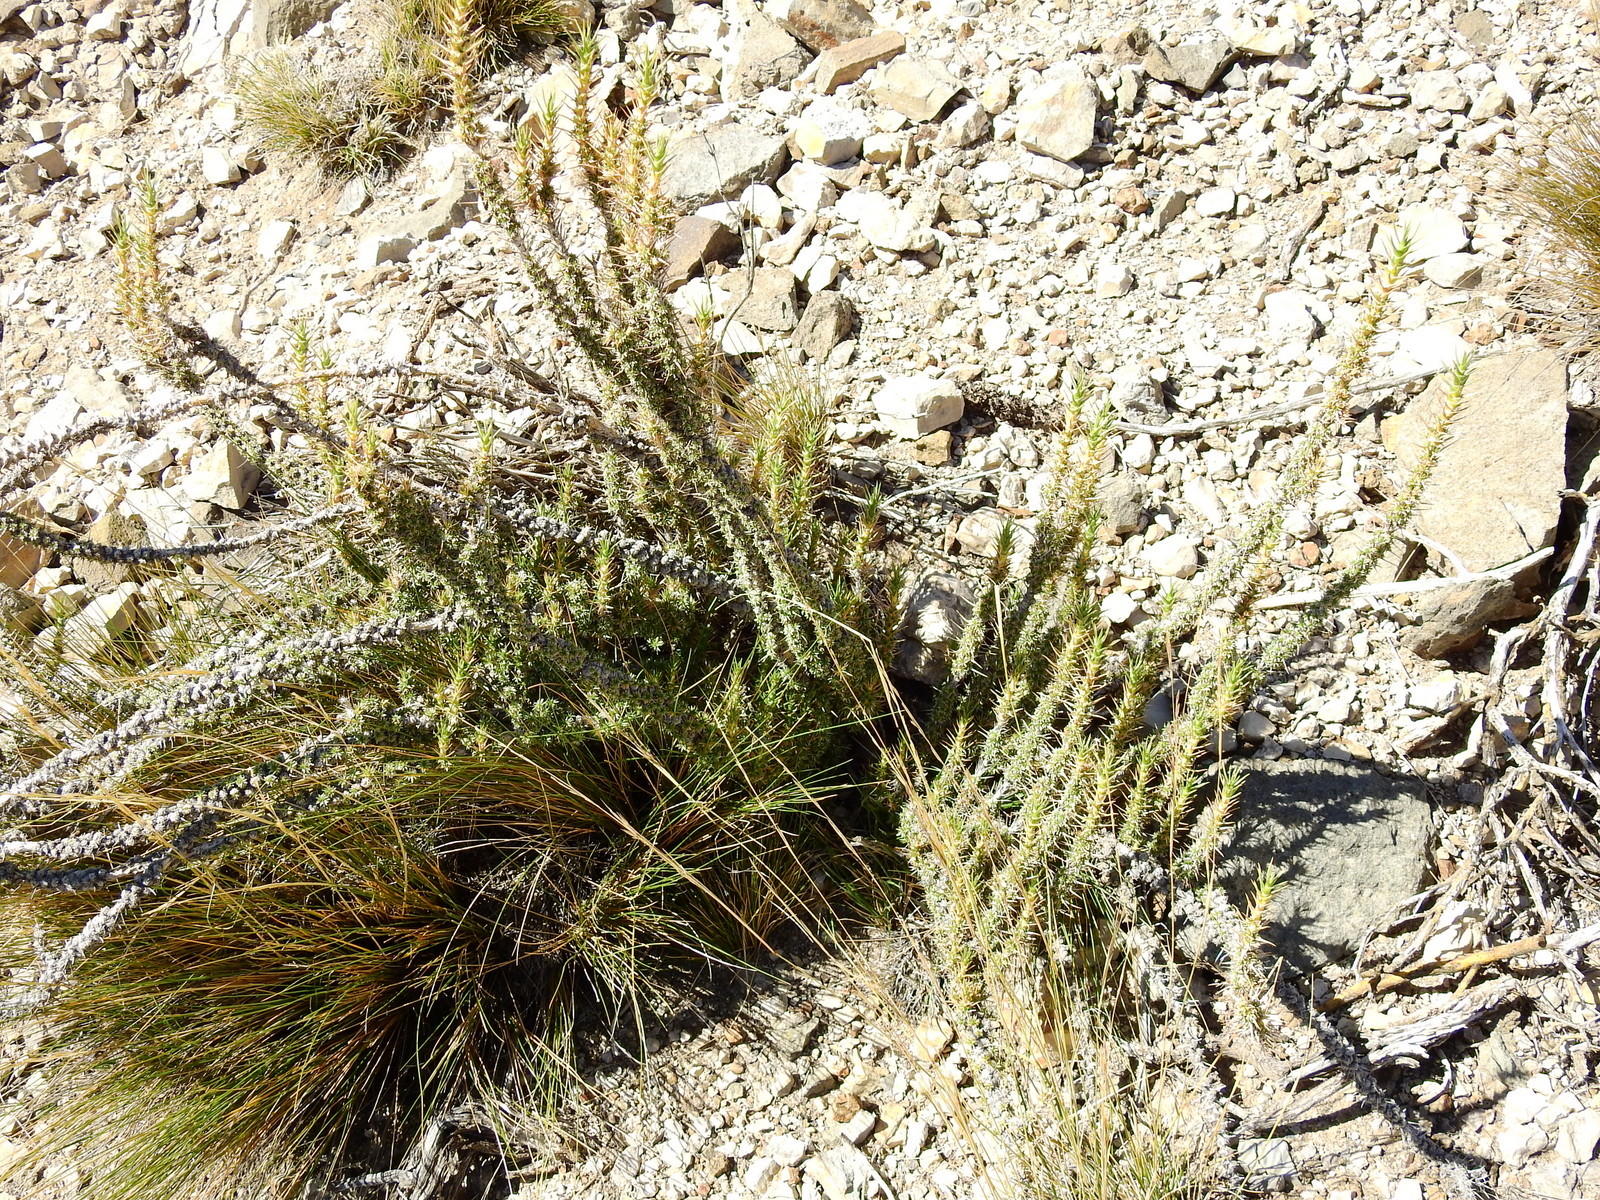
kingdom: Plantae
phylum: Tracheophyta
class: Magnoliopsida
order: Asterales
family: Asteraceae
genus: Nassauvia
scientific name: Nassauvia axillaris
